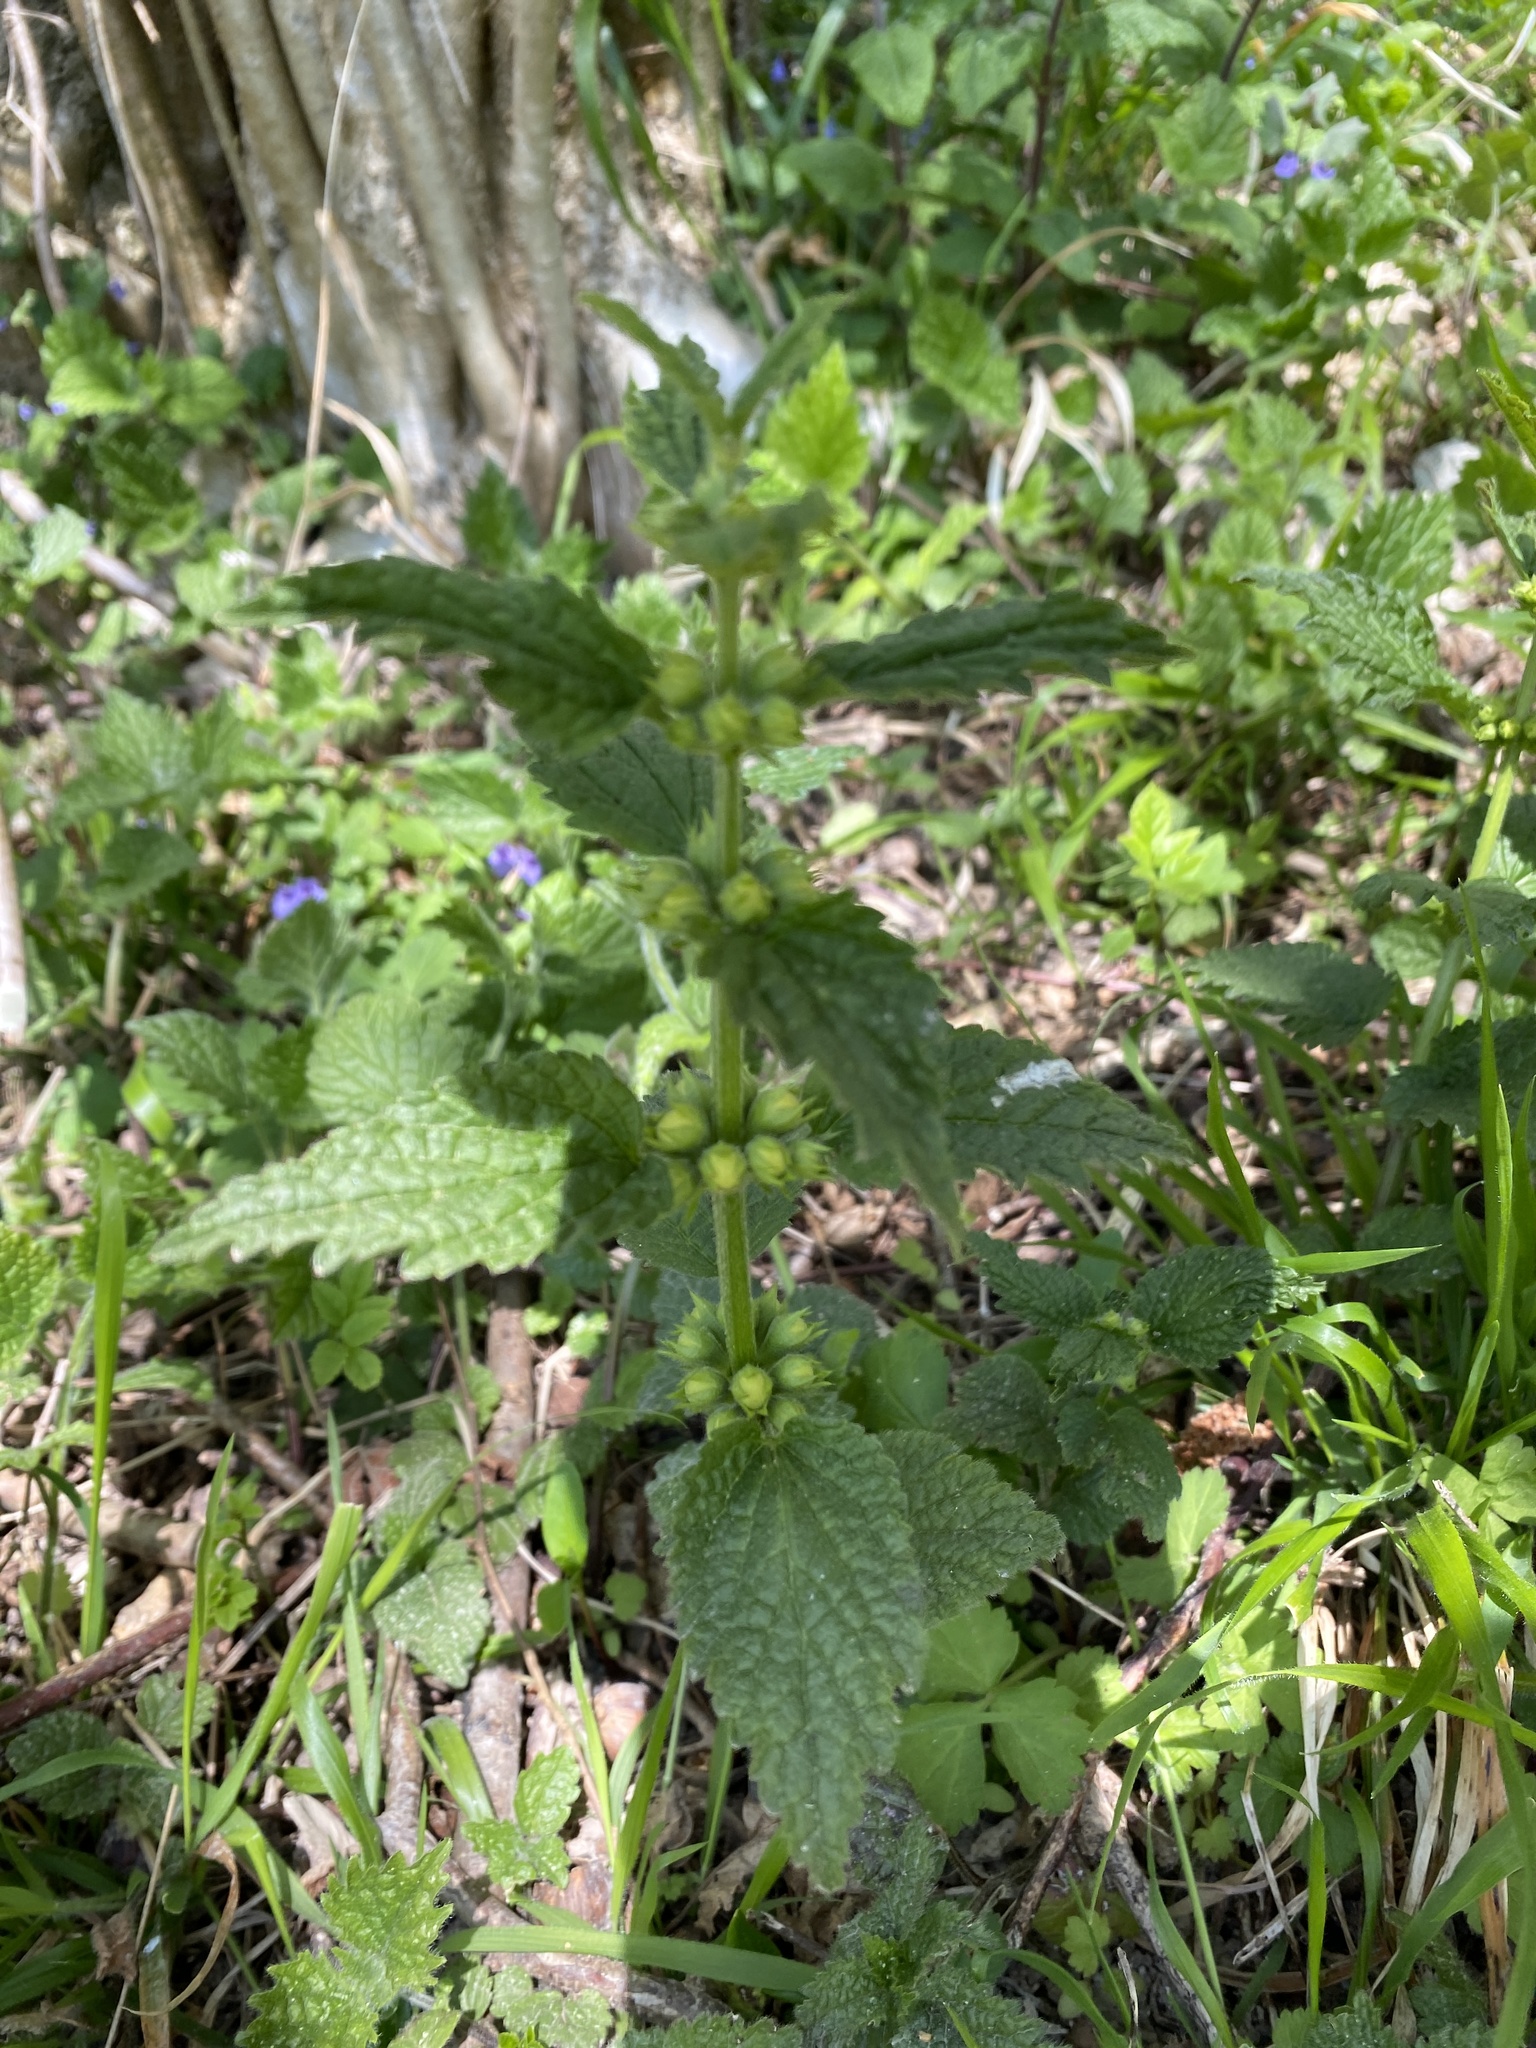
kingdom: Plantae
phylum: Tracheophyta
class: Magnoliopsida
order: Lamiales
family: Lamiaceae
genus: Lamium
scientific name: Lamium galeobdolon
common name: Yellow archangel
